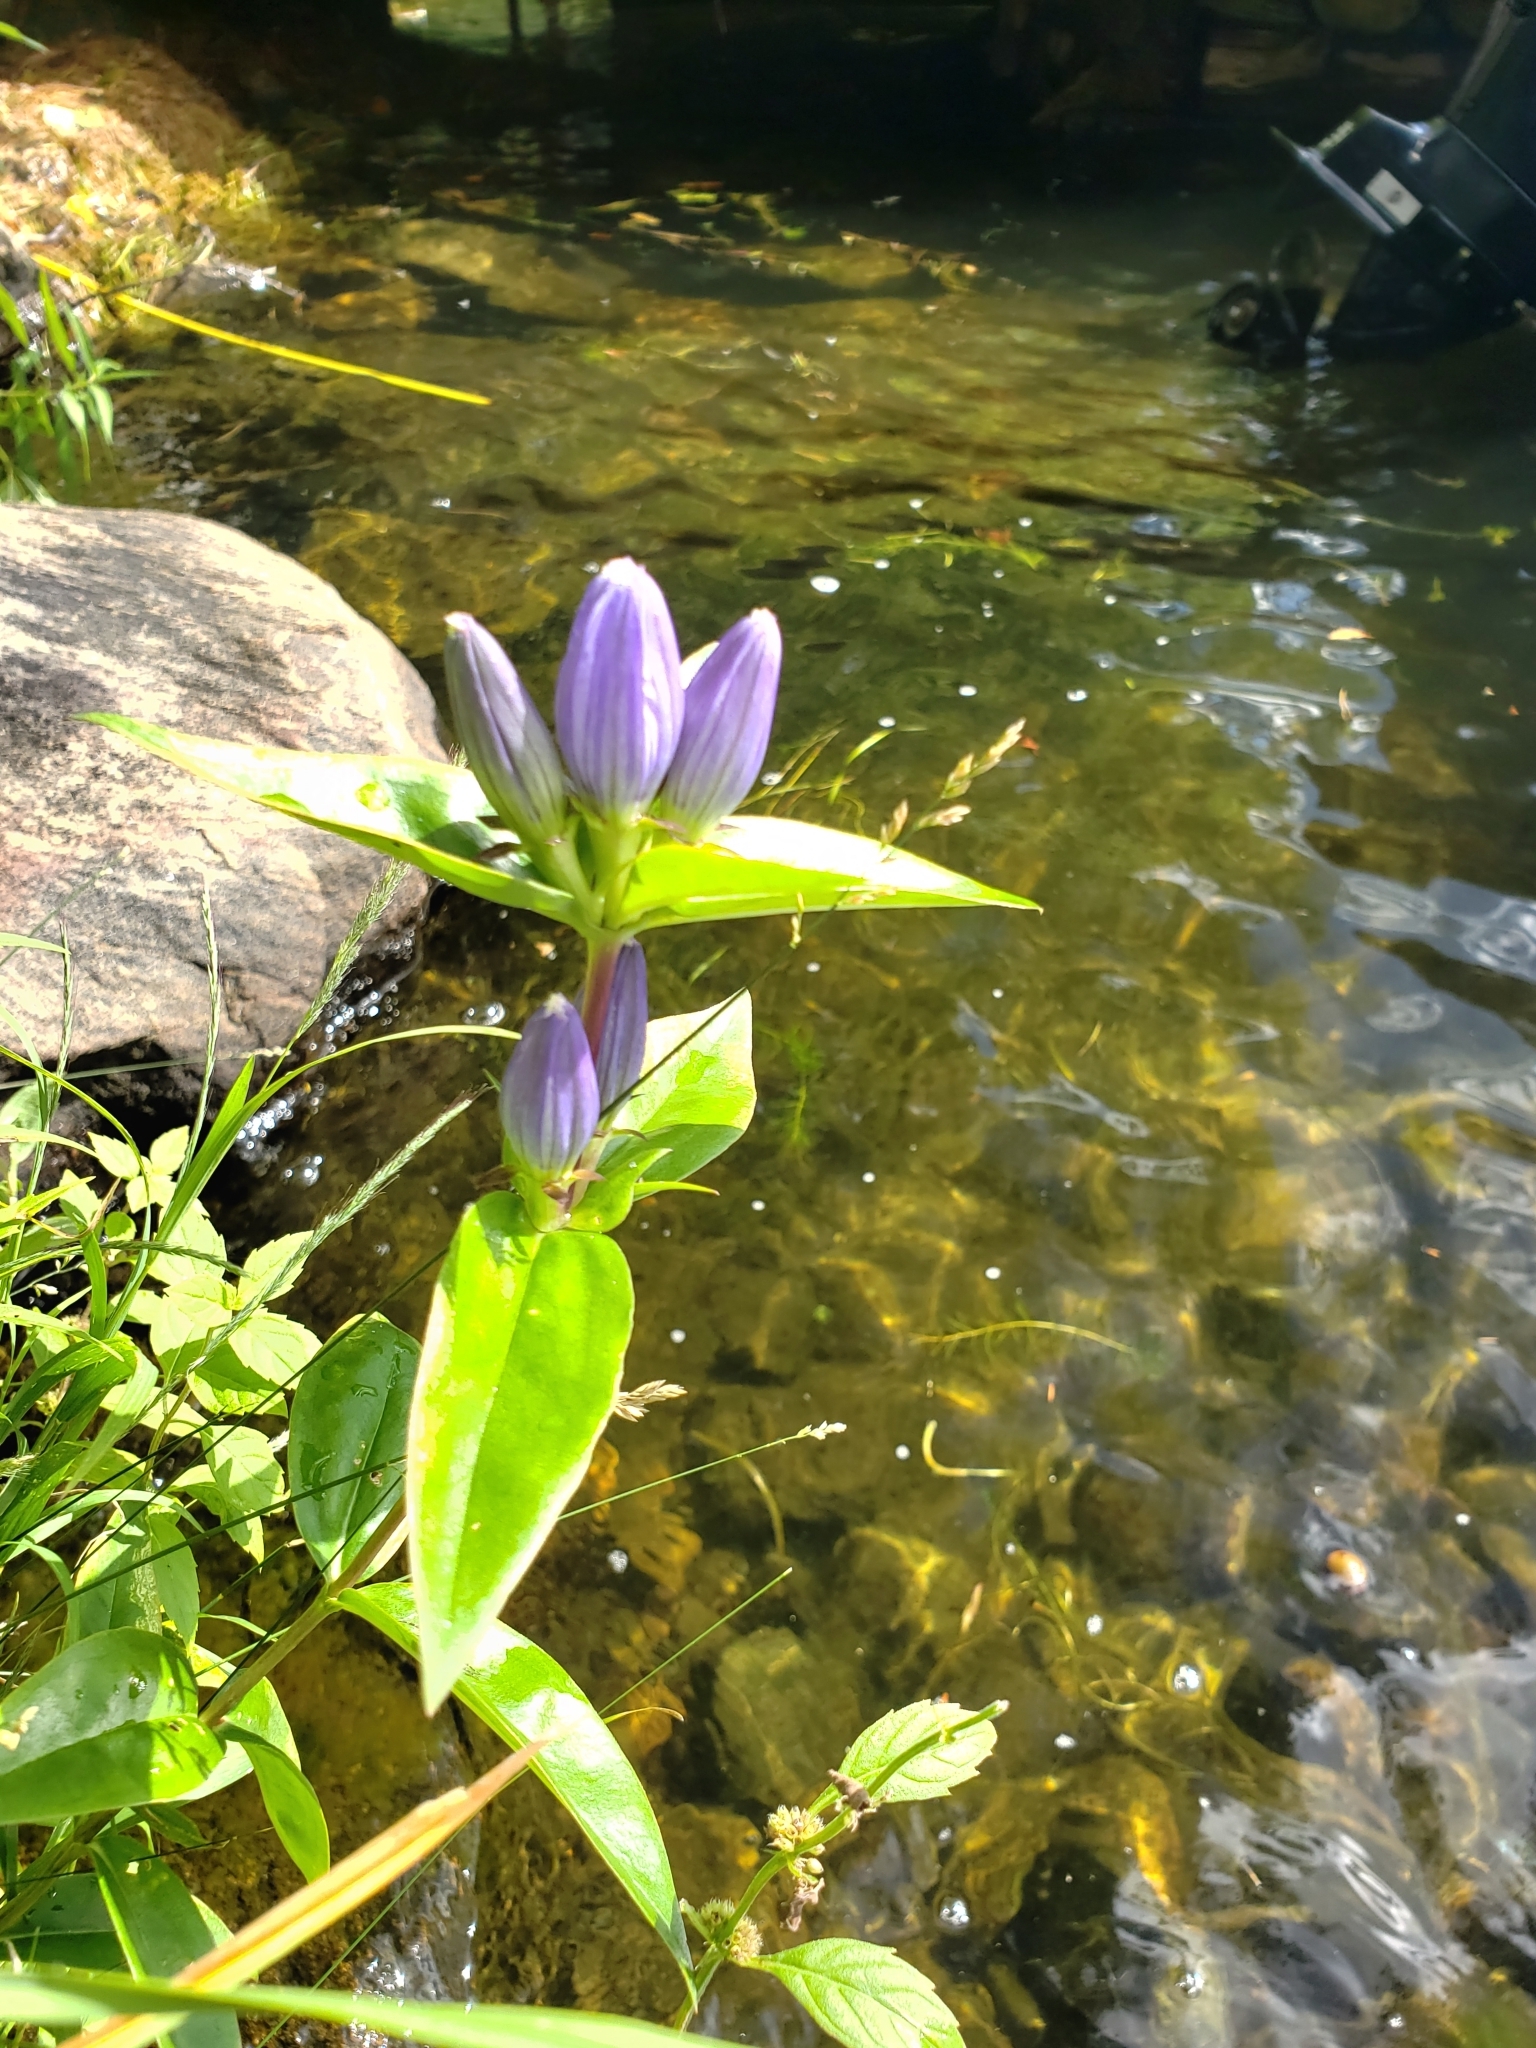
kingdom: Plantae
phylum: Tracheophyta
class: Magnoliopsida
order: Gentianales
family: Gentianaceae
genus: Gentiana
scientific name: Gentiana andrewsii
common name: Bottle gentian
